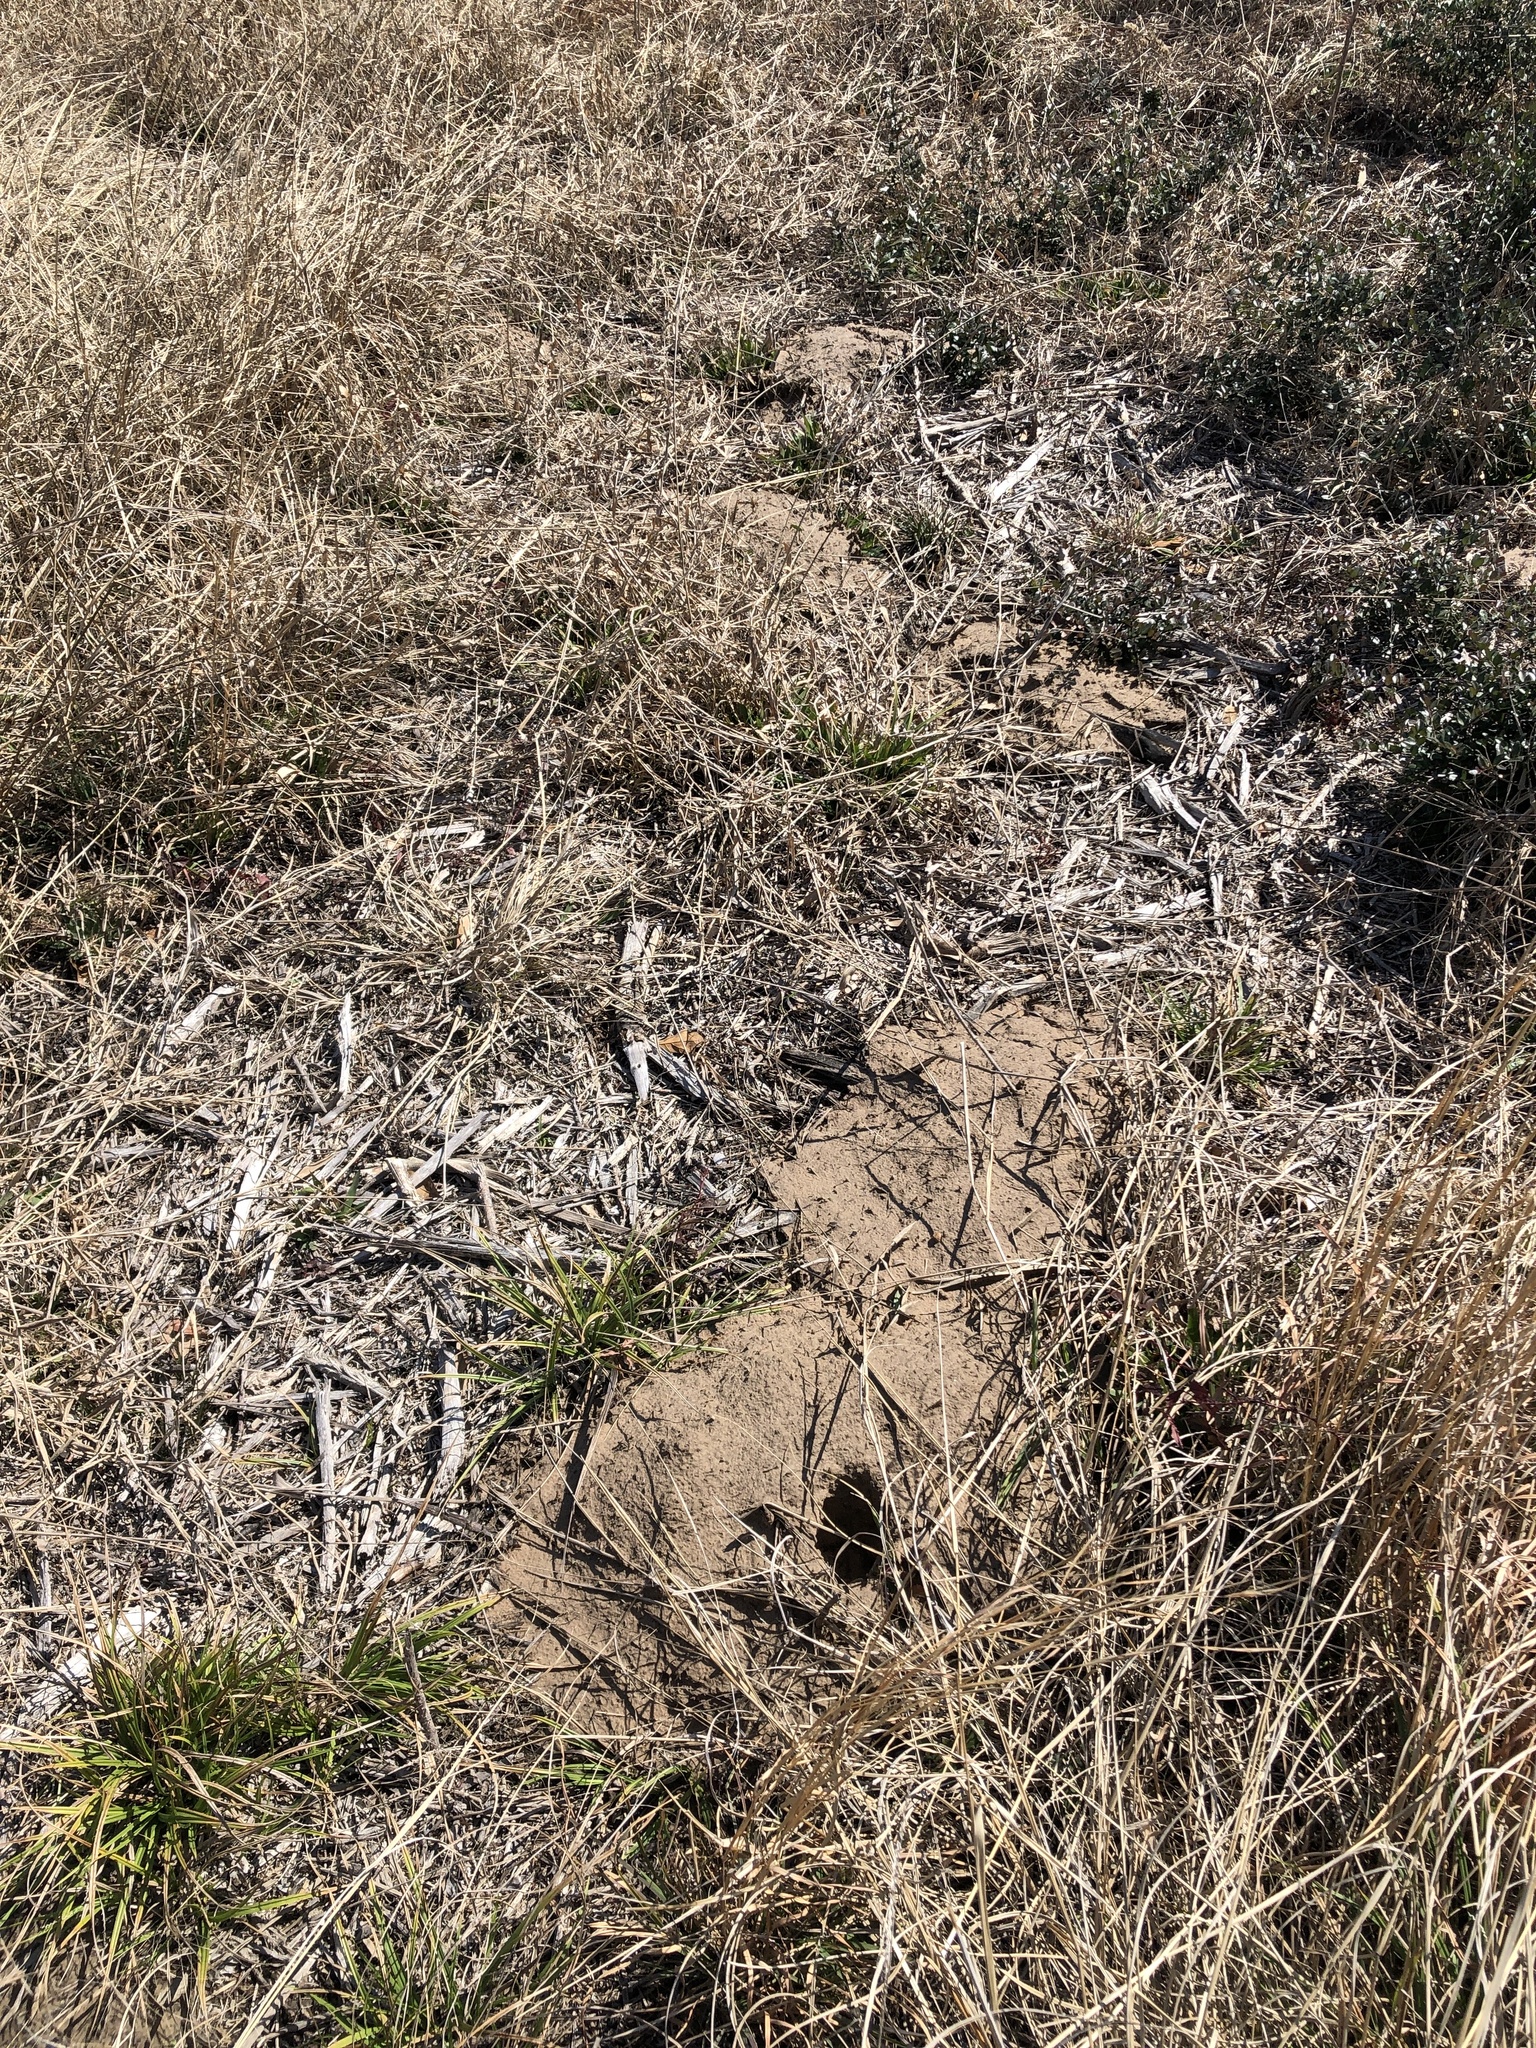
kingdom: Animalia
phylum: Chordata
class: Mammalia
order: Rodentia
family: Geomyidae
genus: Geomys
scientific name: Geomys attwateri
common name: Attwater's pocket gopher
